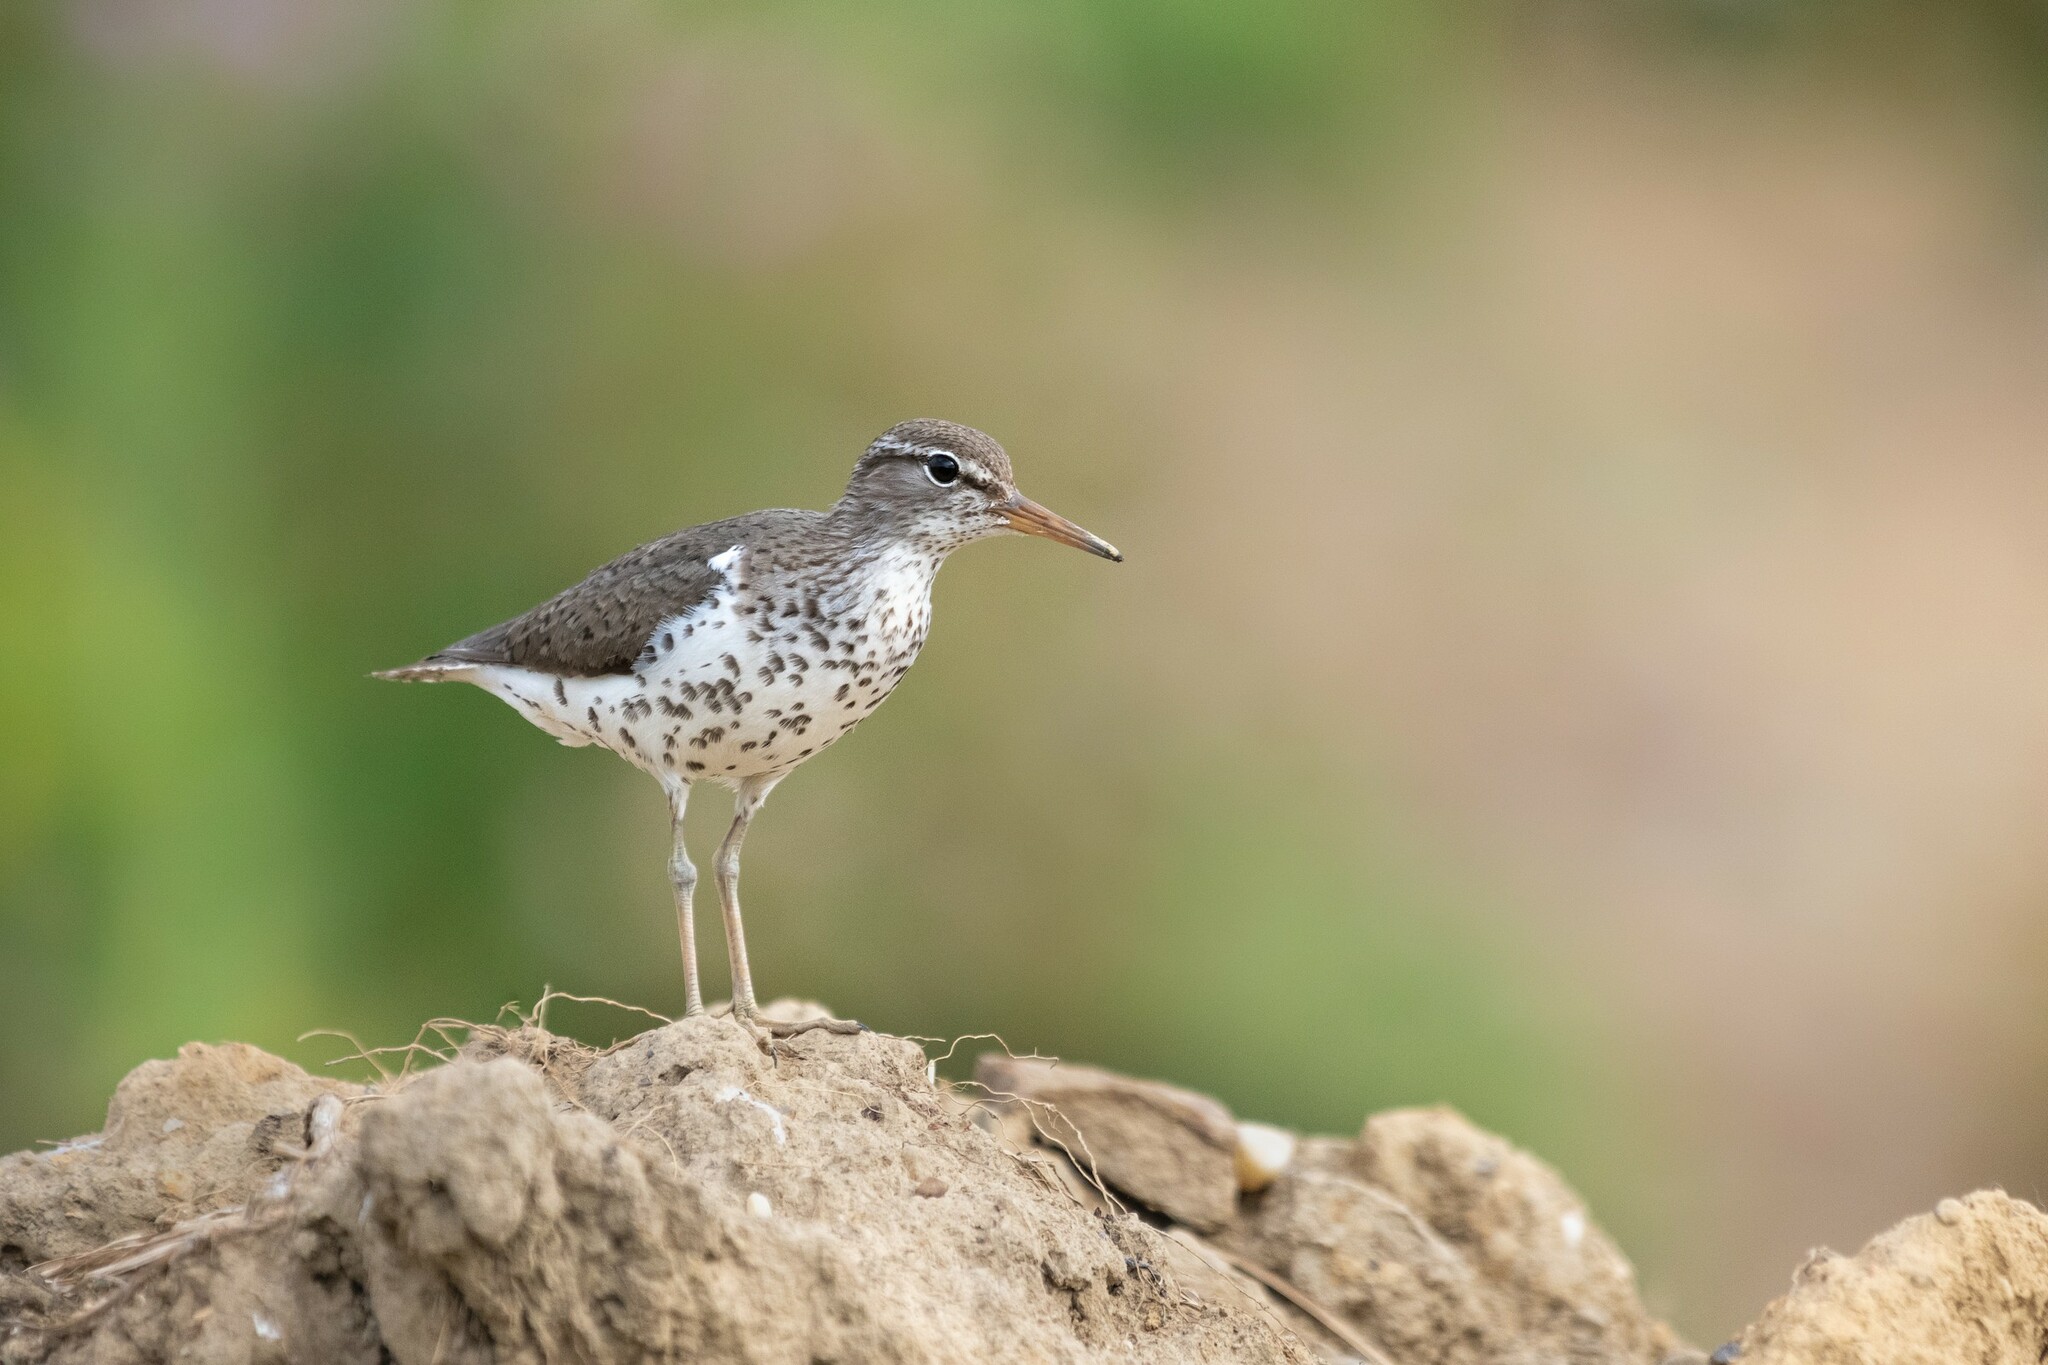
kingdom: Animalia
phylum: Chordata
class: Aves
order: Charadriiformes
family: Scolopacidae
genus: Actitis
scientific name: Actitis macularius
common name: Spotted sandpiper
